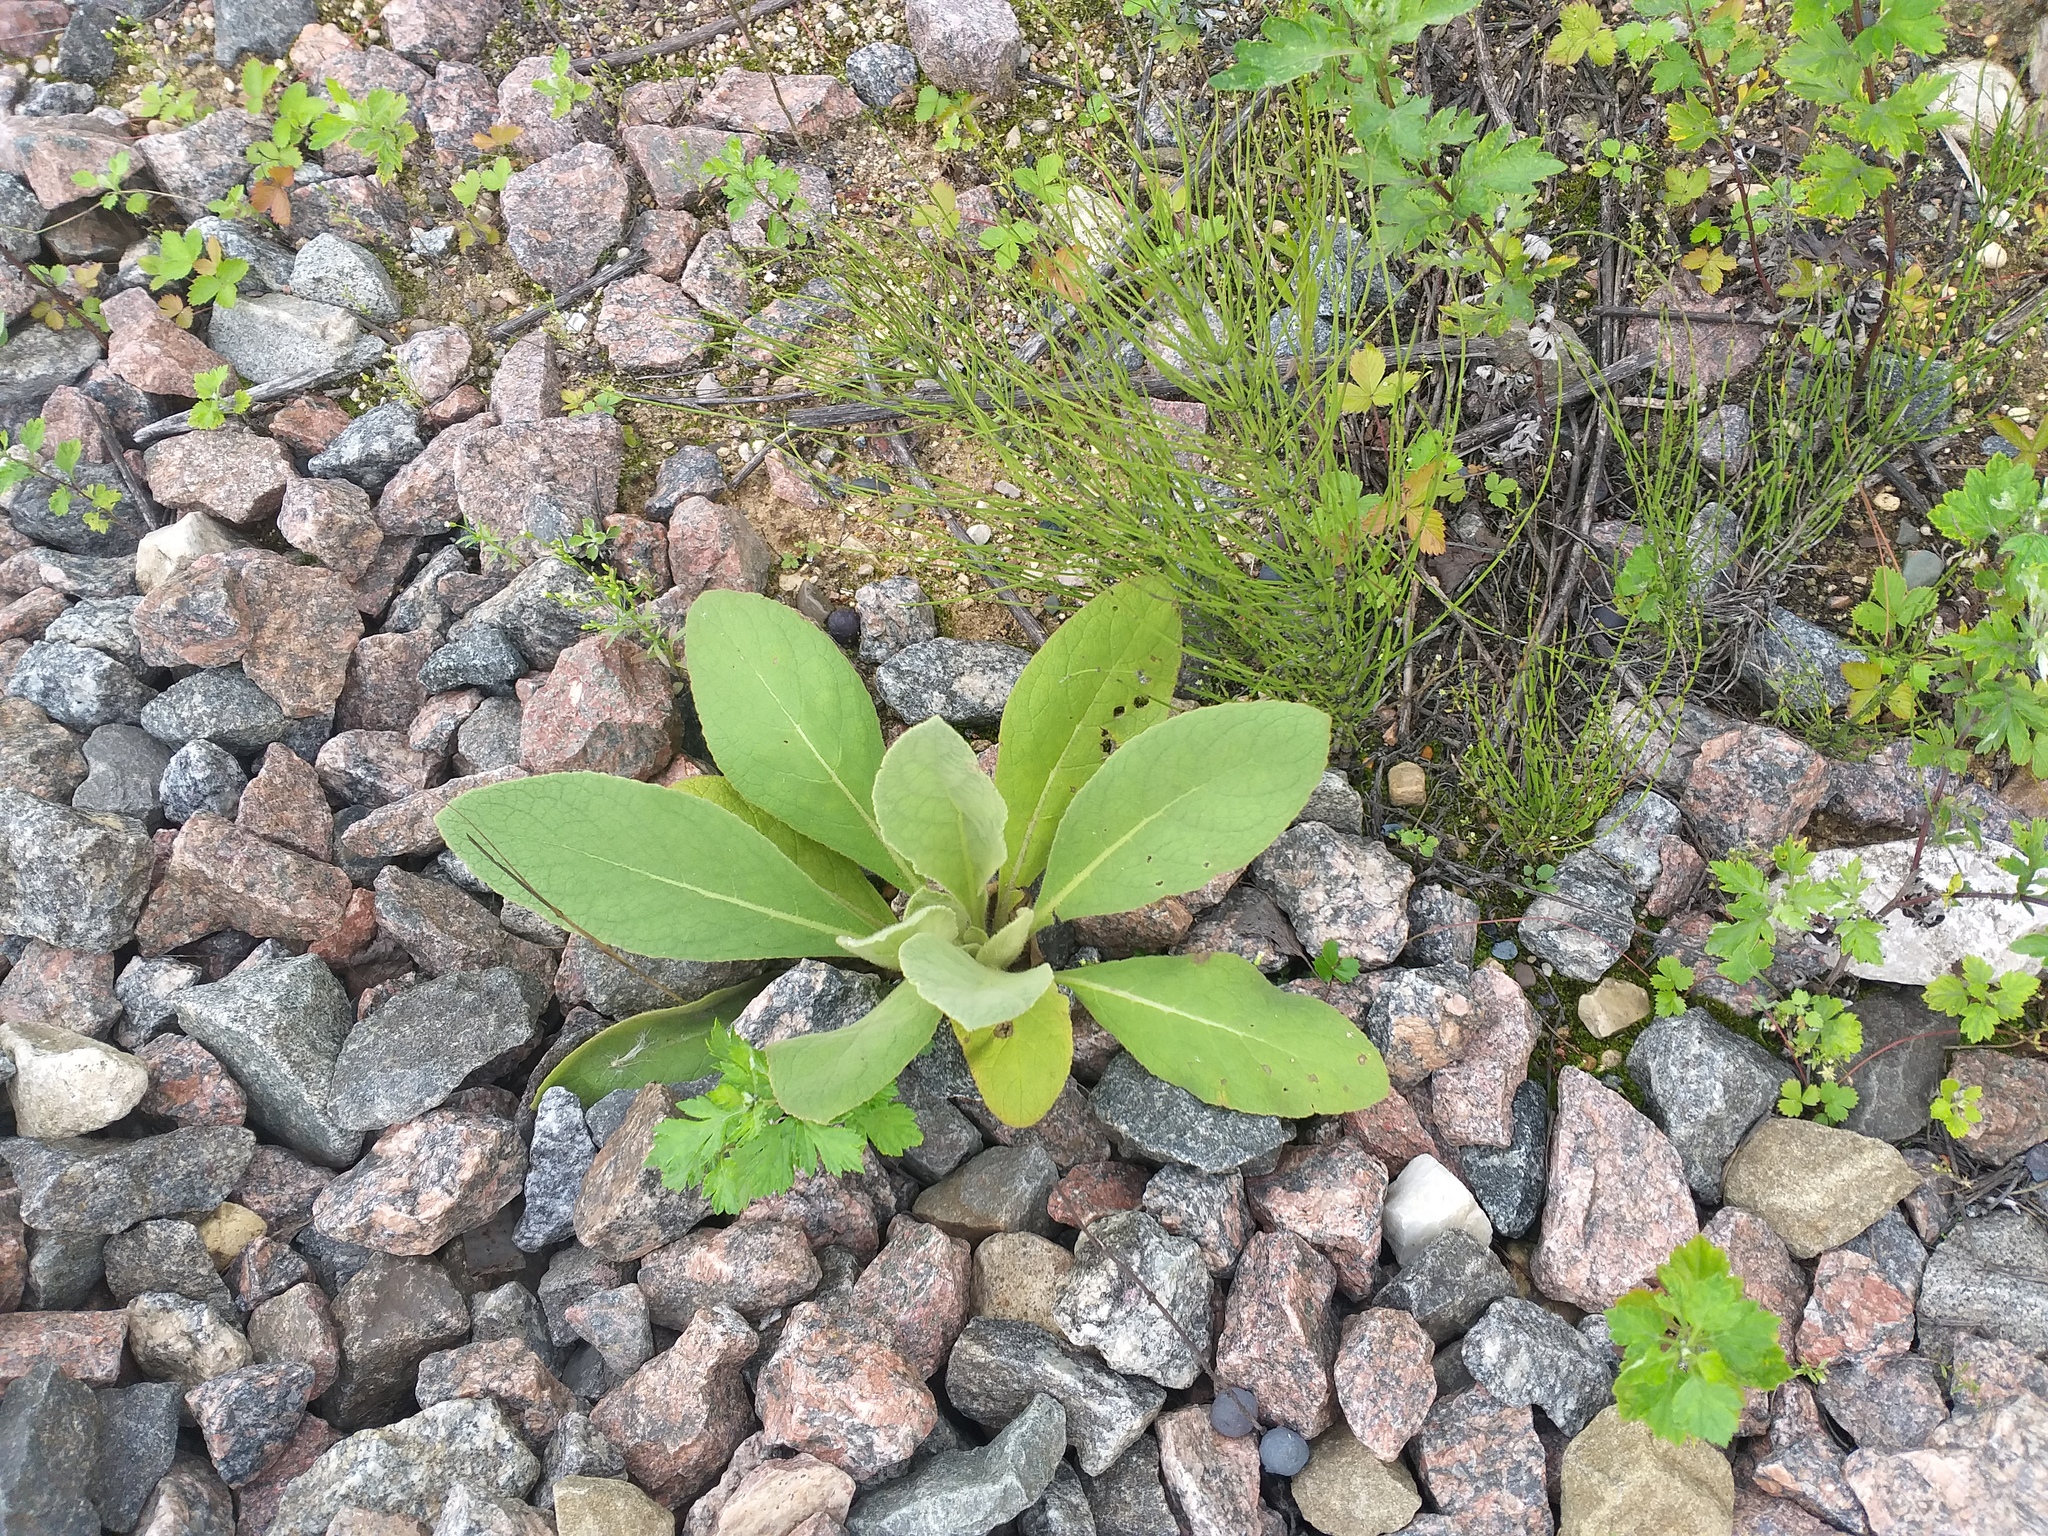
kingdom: Plantae
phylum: Tracheophyta
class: Magnoliopsida
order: Lamiales
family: Scrophulariaceae
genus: Verbascum
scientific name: Verbascum thapsus
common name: Common mullein
